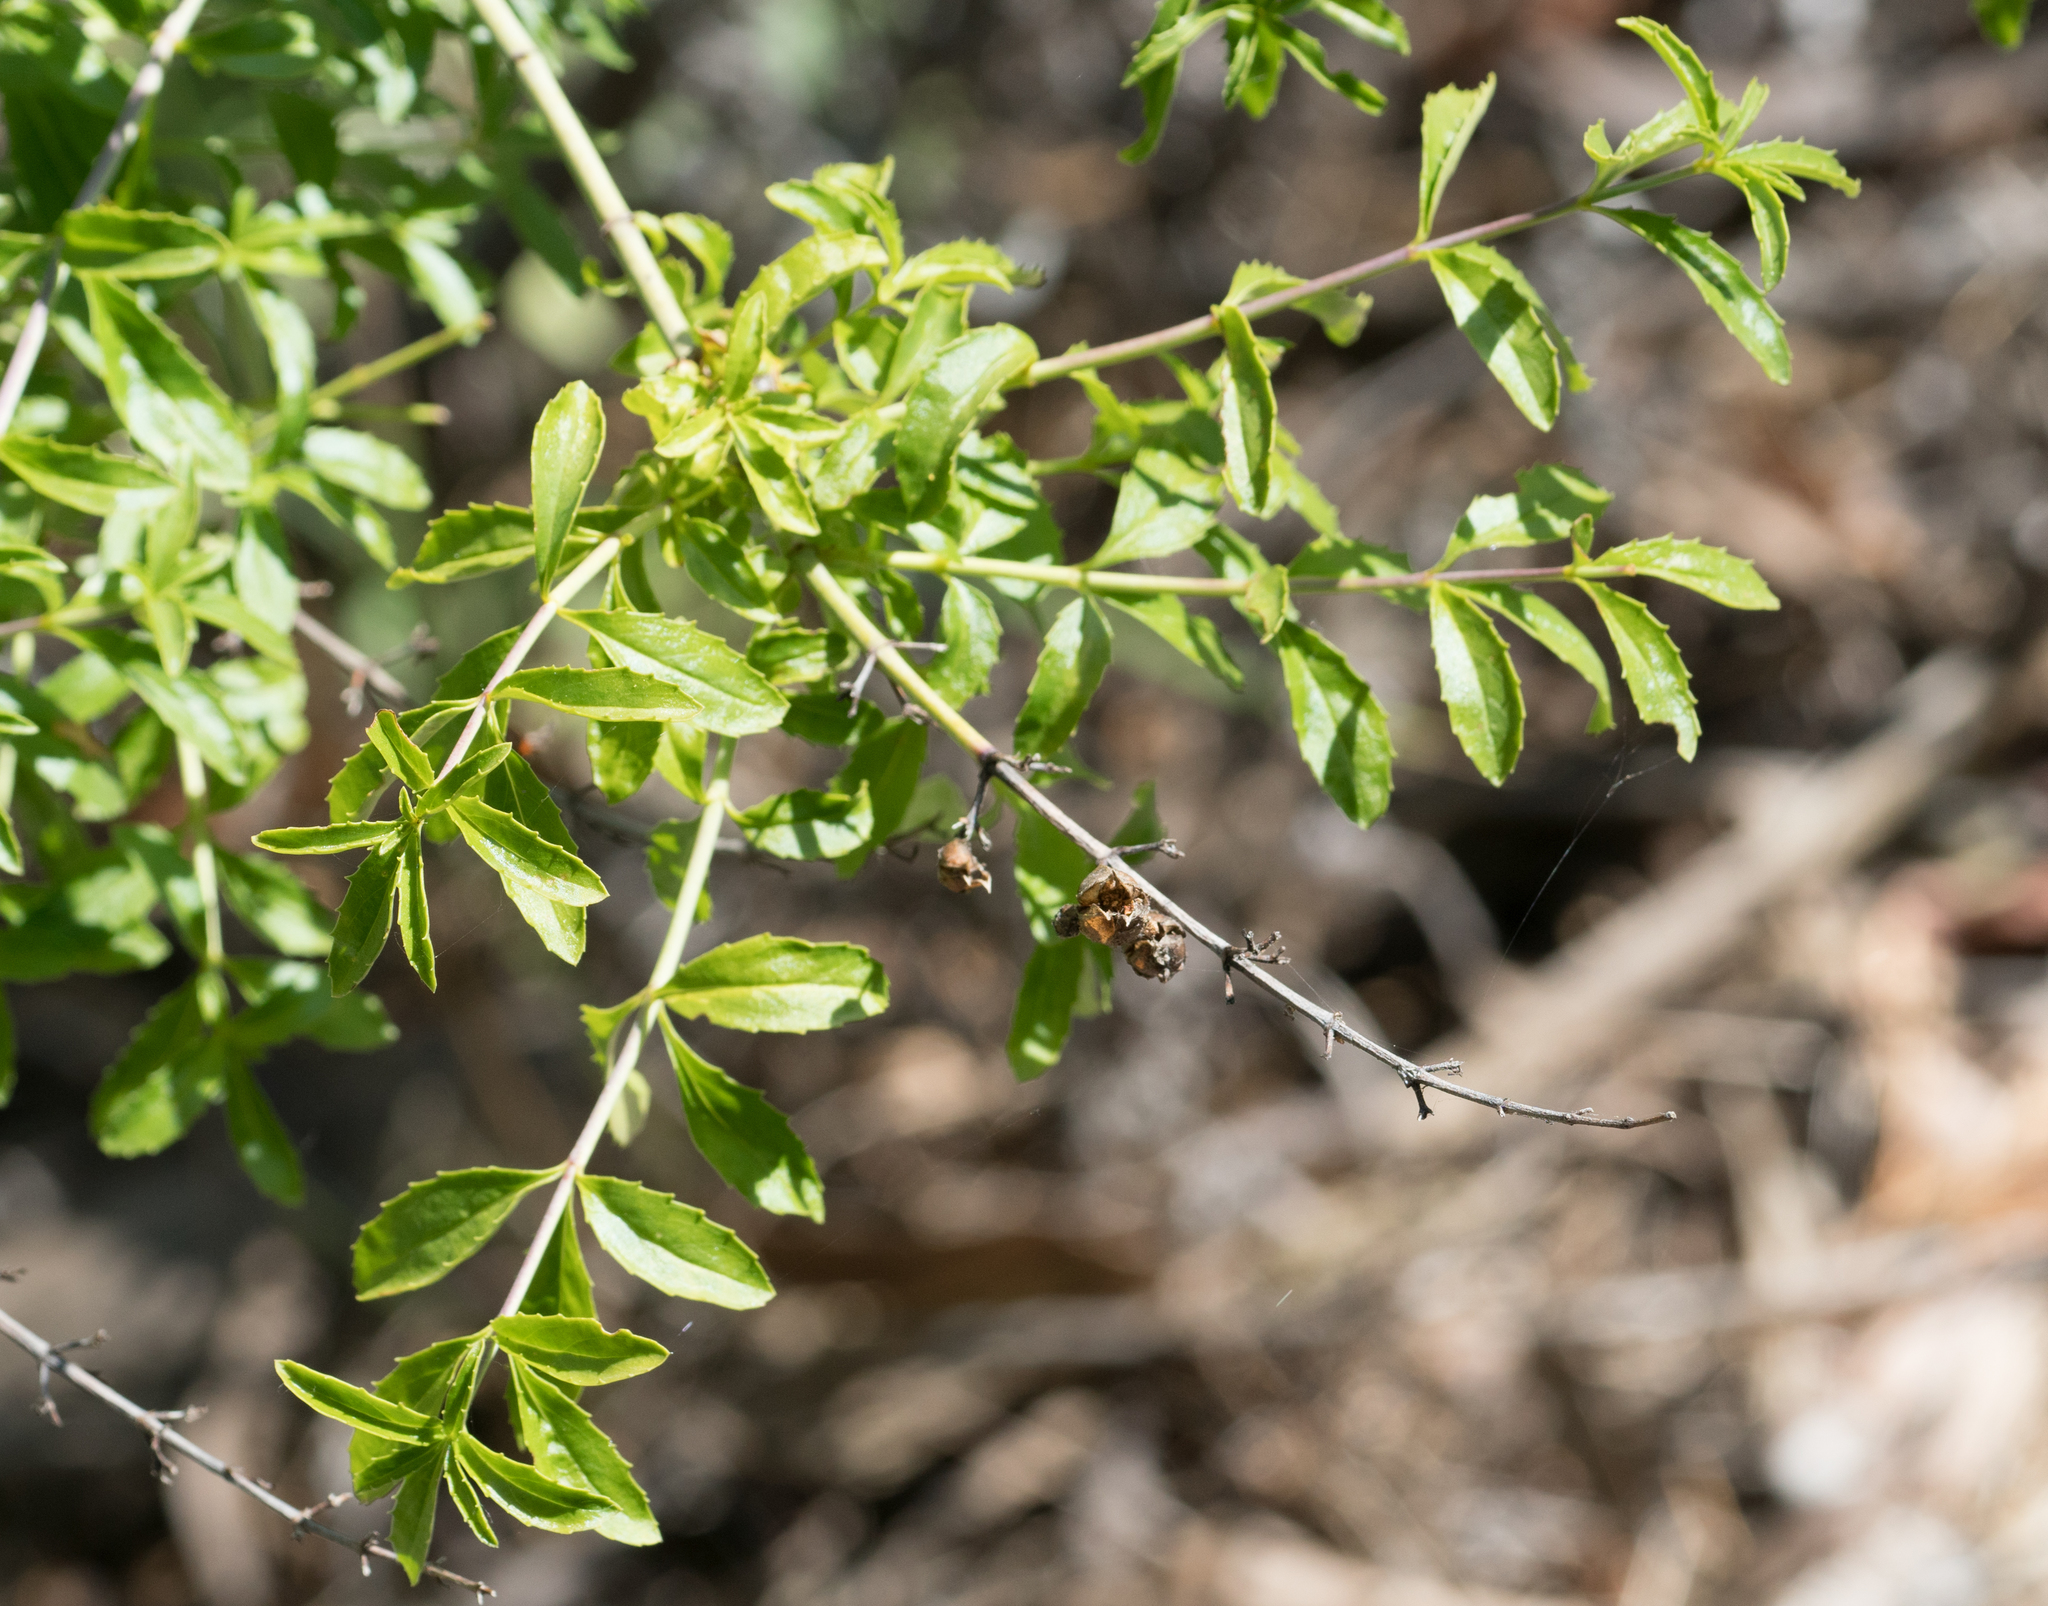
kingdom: Plantae
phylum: Tracheophyta
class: Magnoliopsida
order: Lamiales
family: Plantaginaceae
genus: Keckiella
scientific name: Keckiella ternata
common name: Scarlet keckiella
